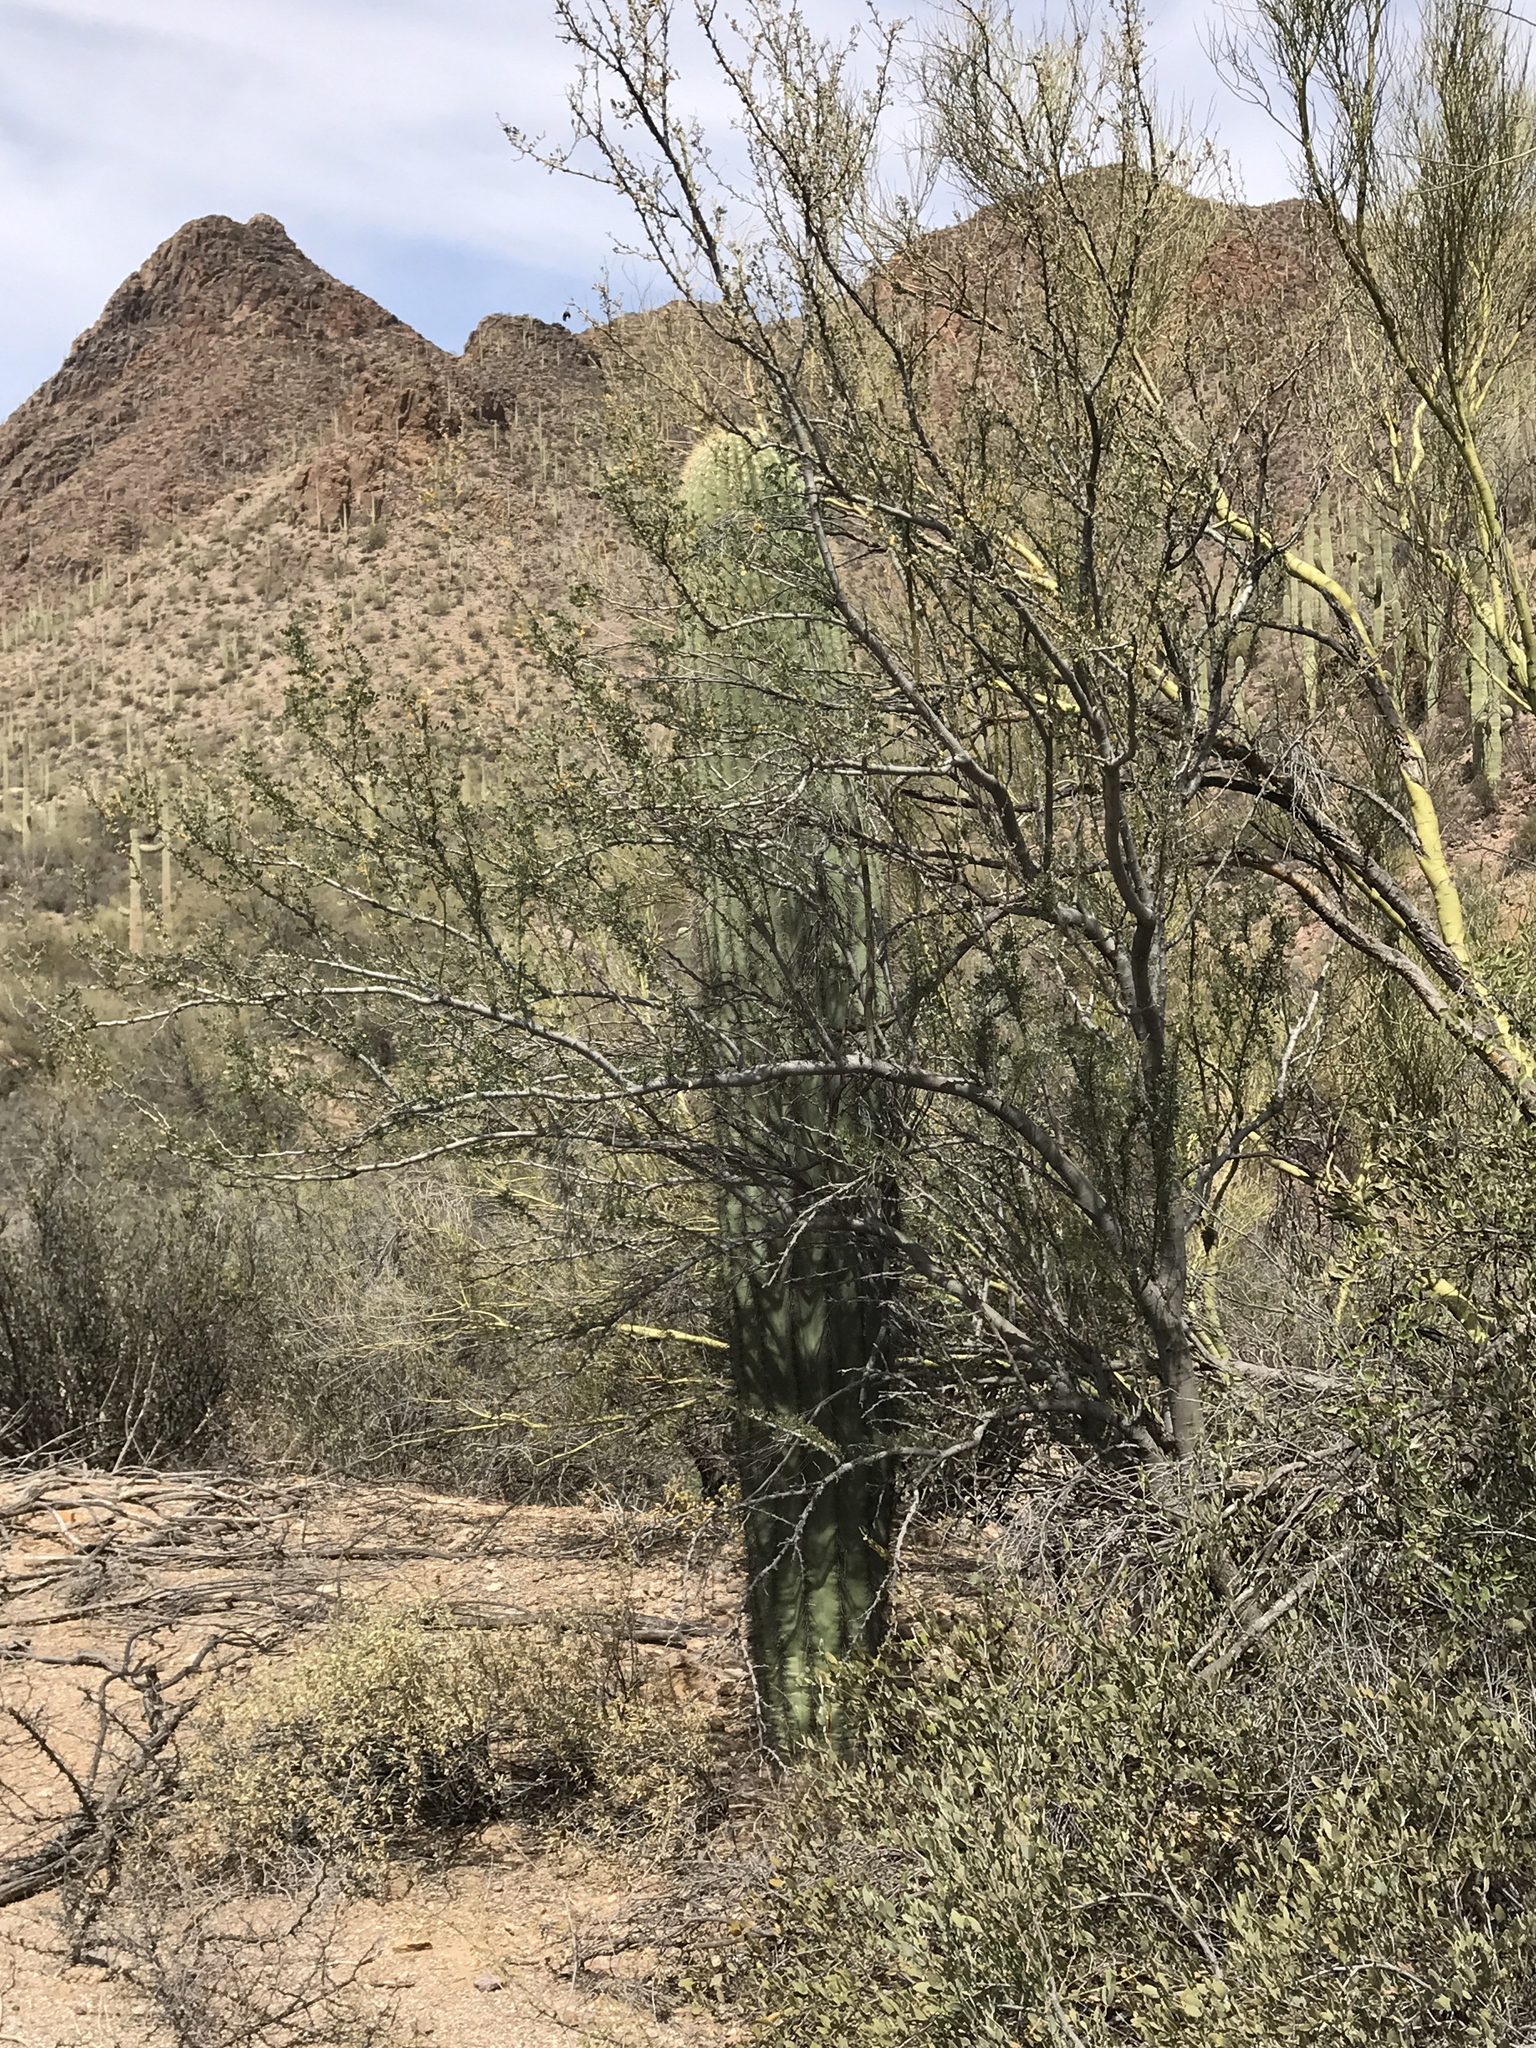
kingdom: Plantae
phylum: Tracheophyta
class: Magnoliopsida
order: Caryophyllales
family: Cactaceae
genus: Carnegiea
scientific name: Carnegiea gigantea
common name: Saguaro
